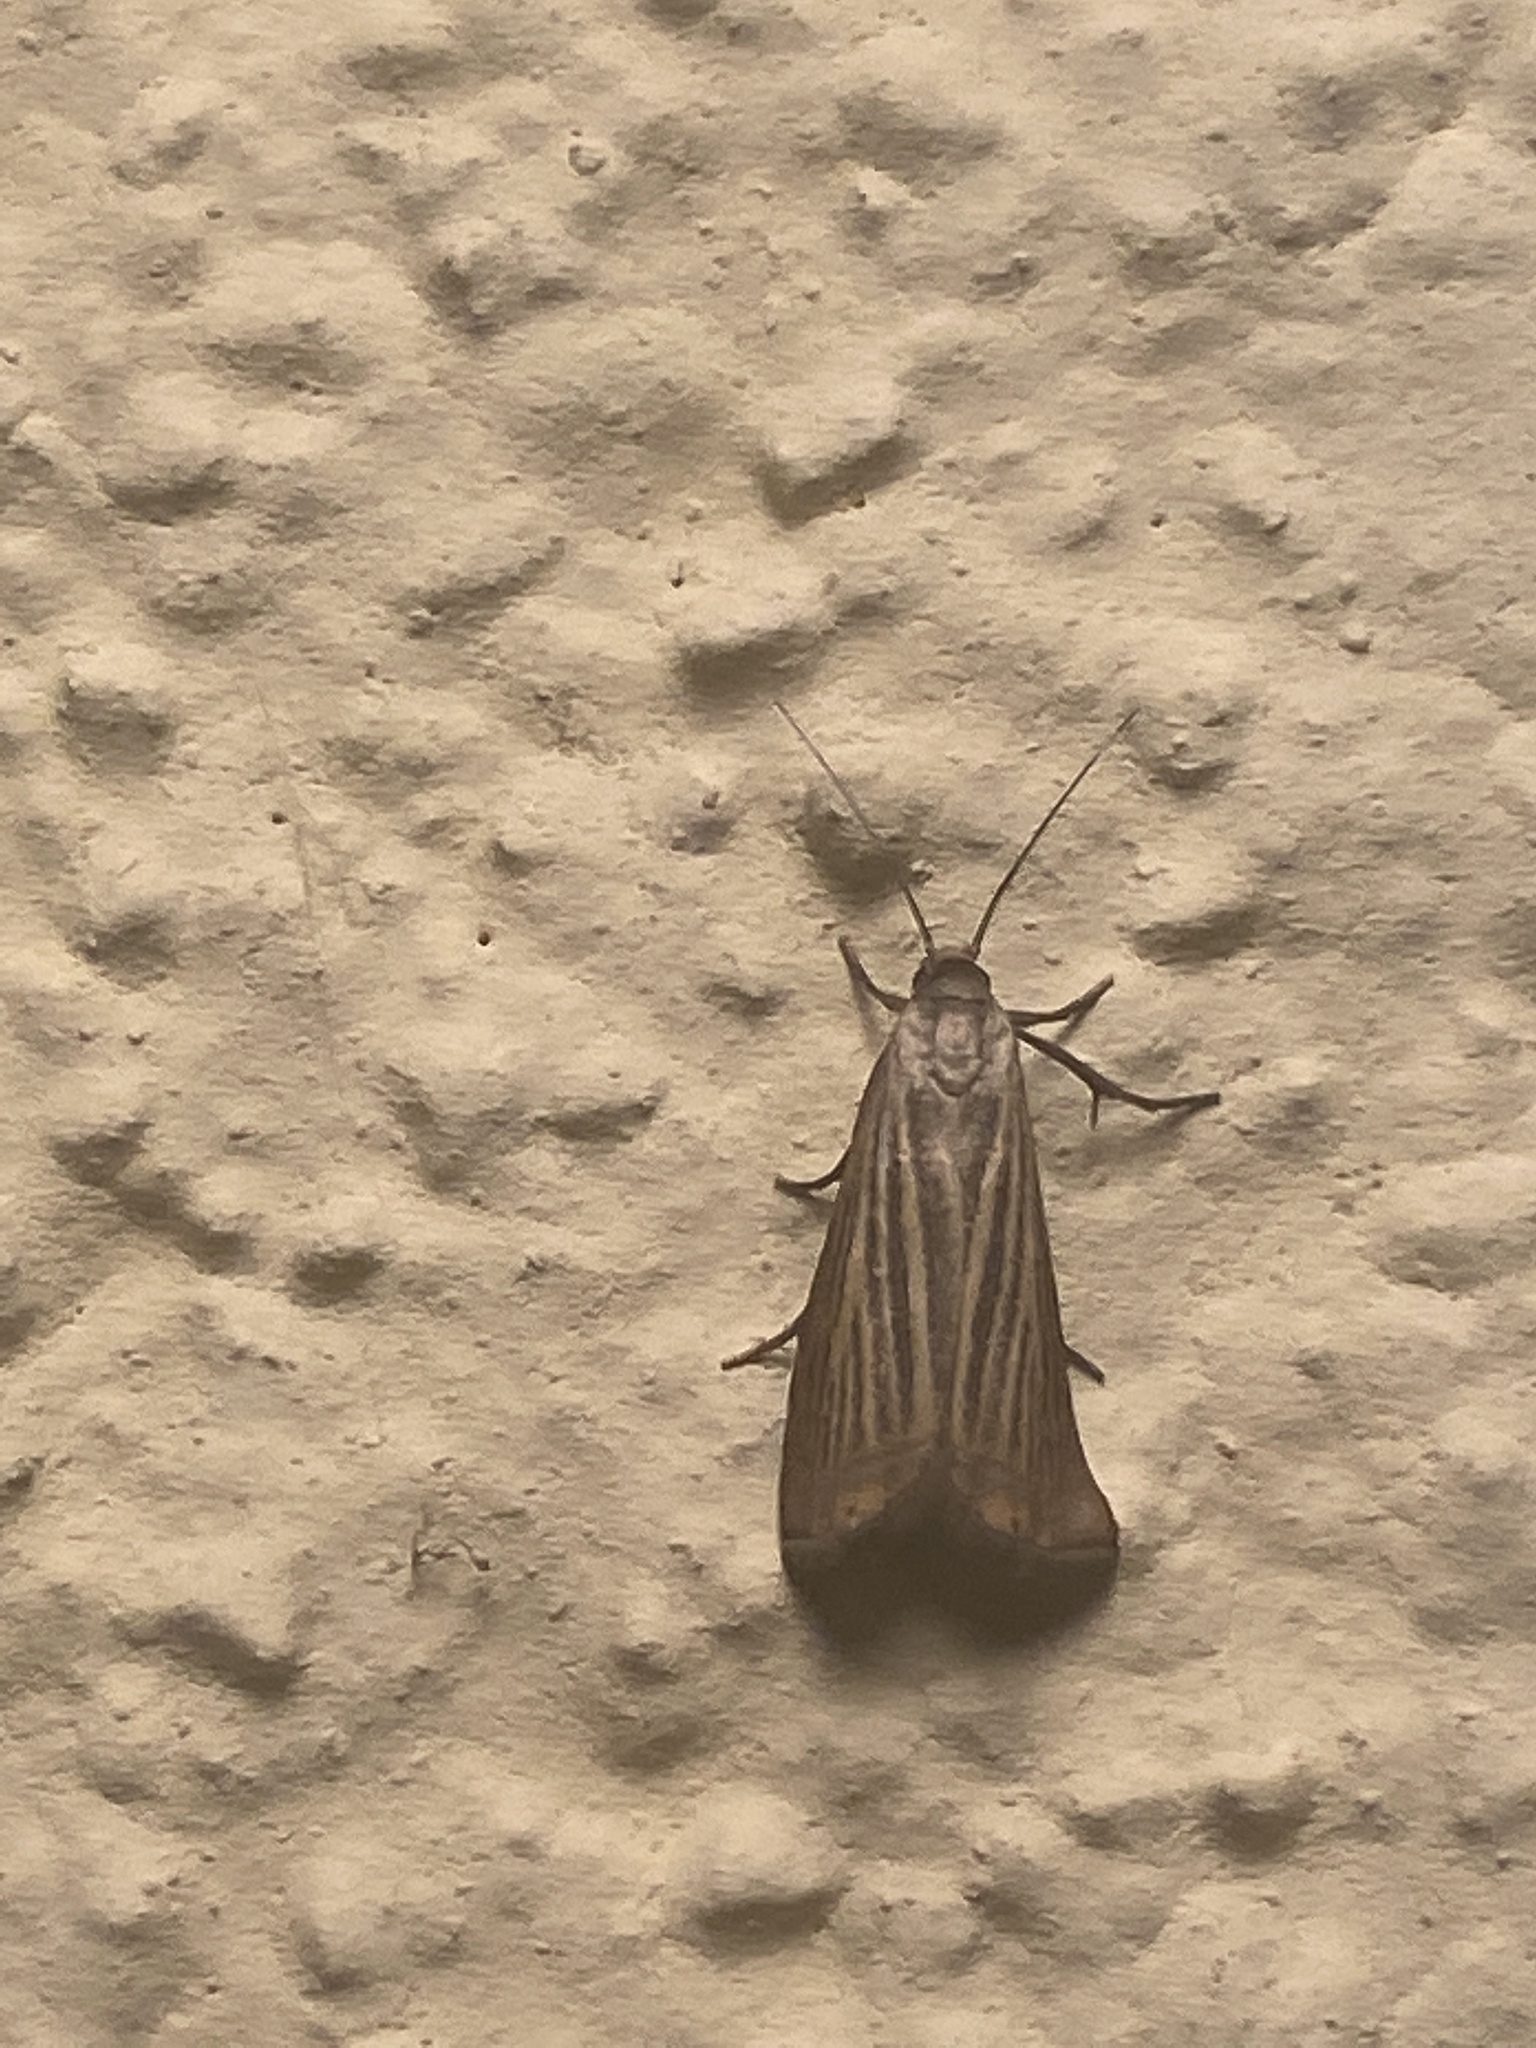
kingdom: Animalia
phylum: Arthropoda
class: Insecta
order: Lepidoptera
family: Crambidae
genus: Chrysoteuchia
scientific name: Chrysoteuchia culmella
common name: Garden grass-veneer
